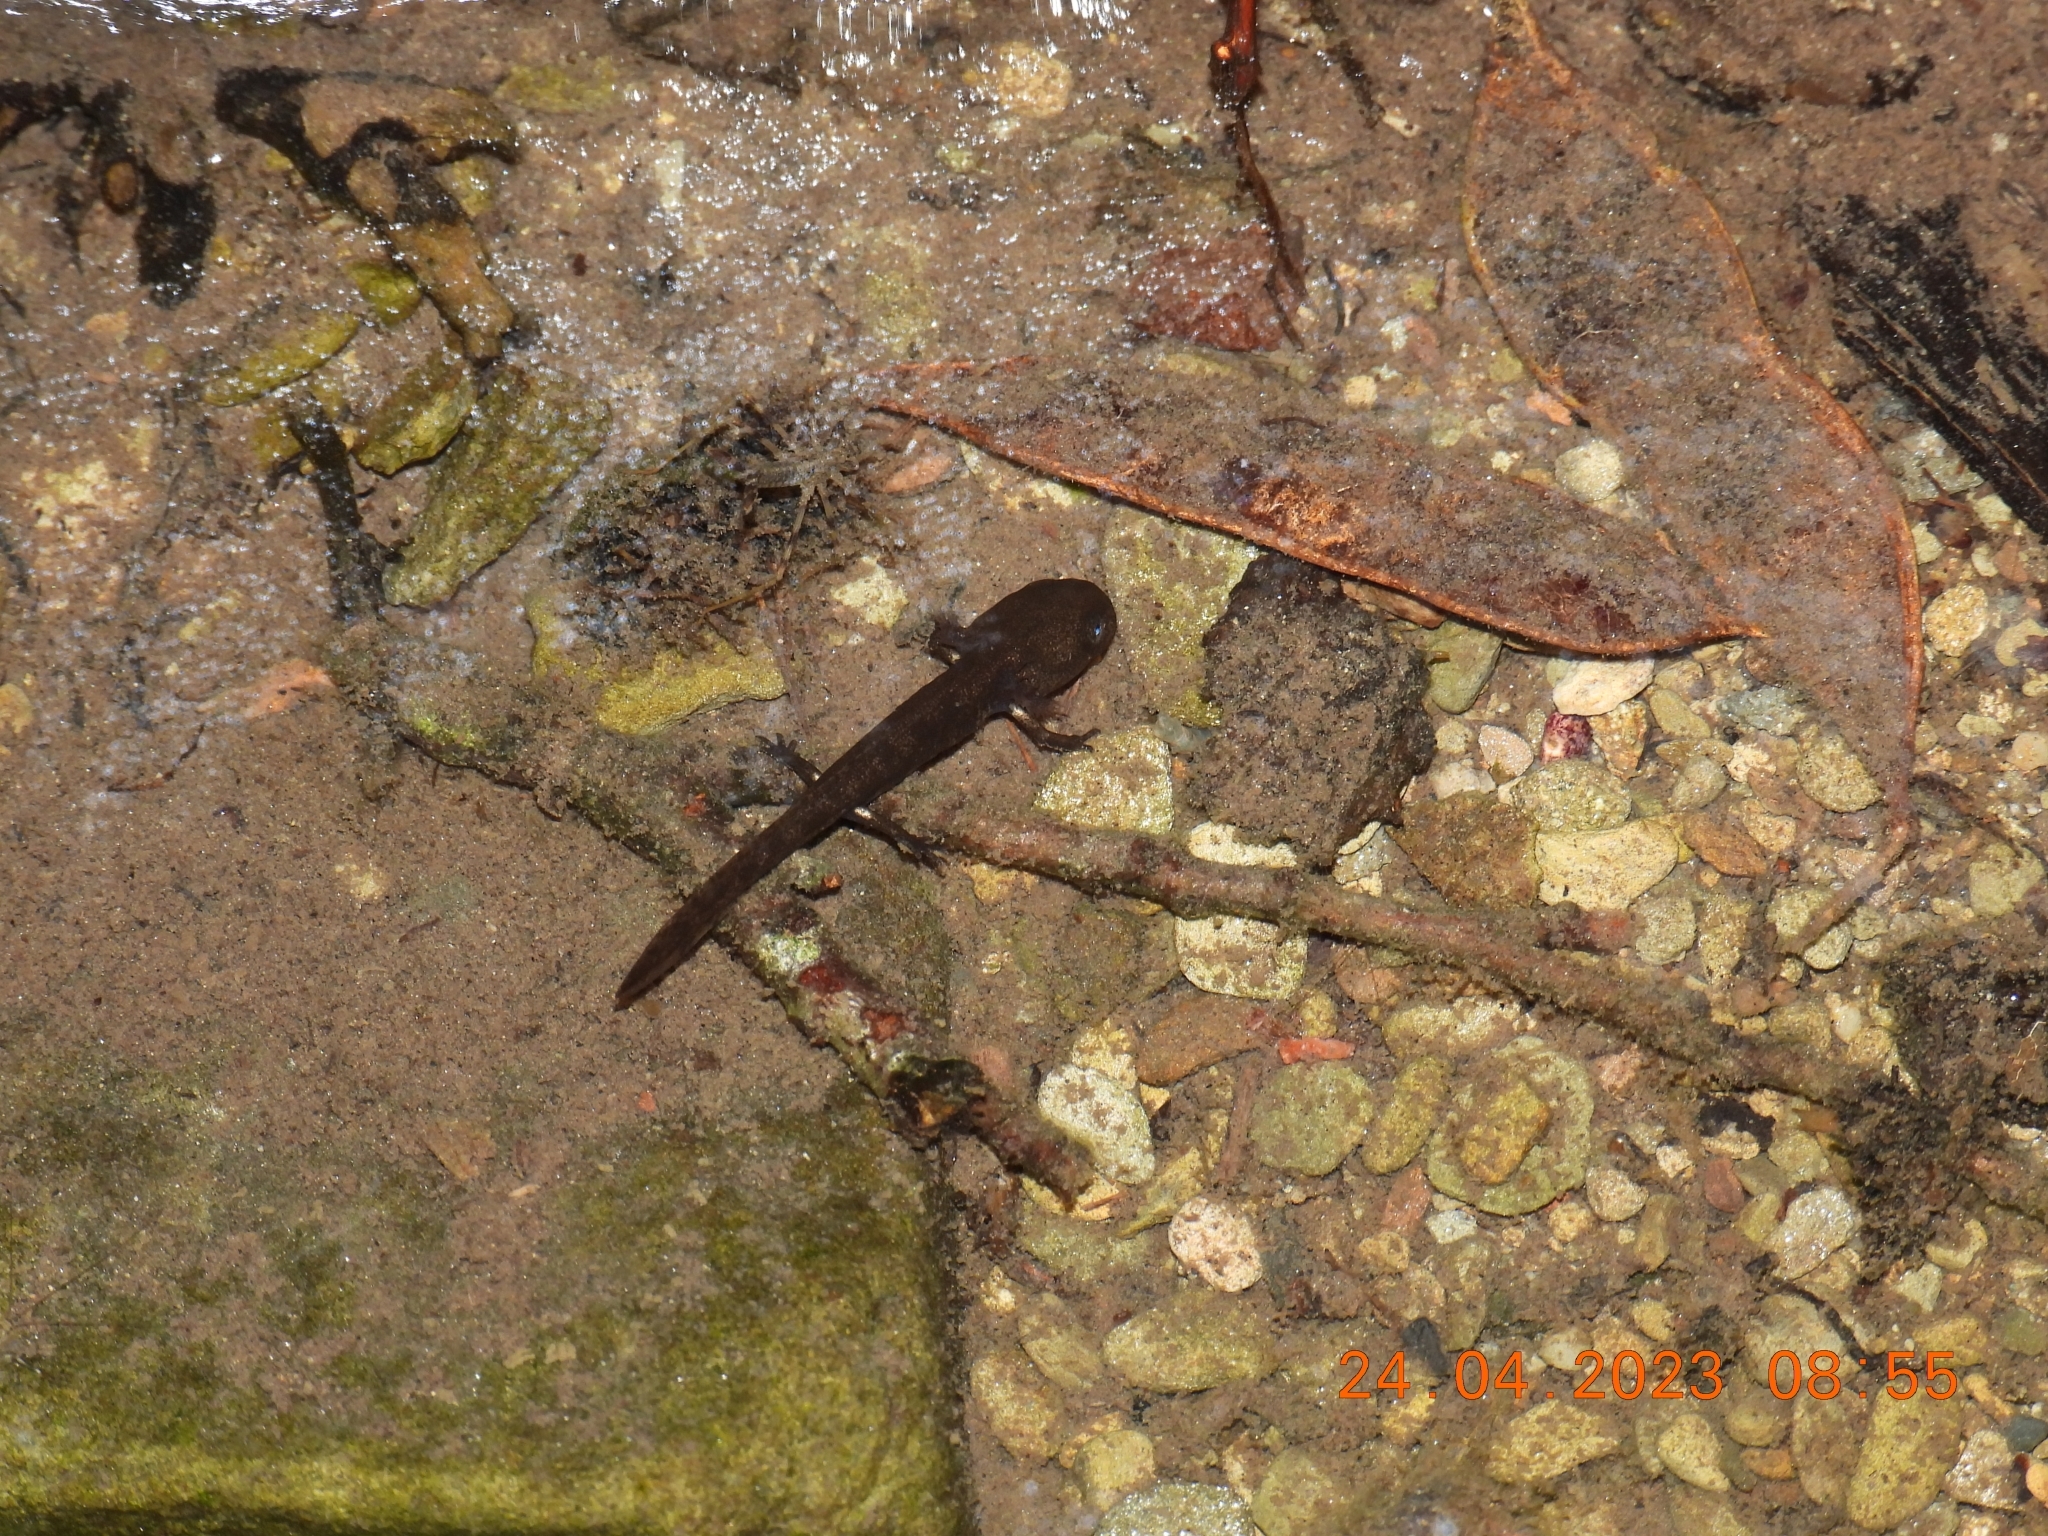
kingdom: Animalia
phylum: Chordata
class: Amphibia
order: Caudata
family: Salamandridae
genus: Salamandra
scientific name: Salamandra salamandra
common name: Fire salamander
